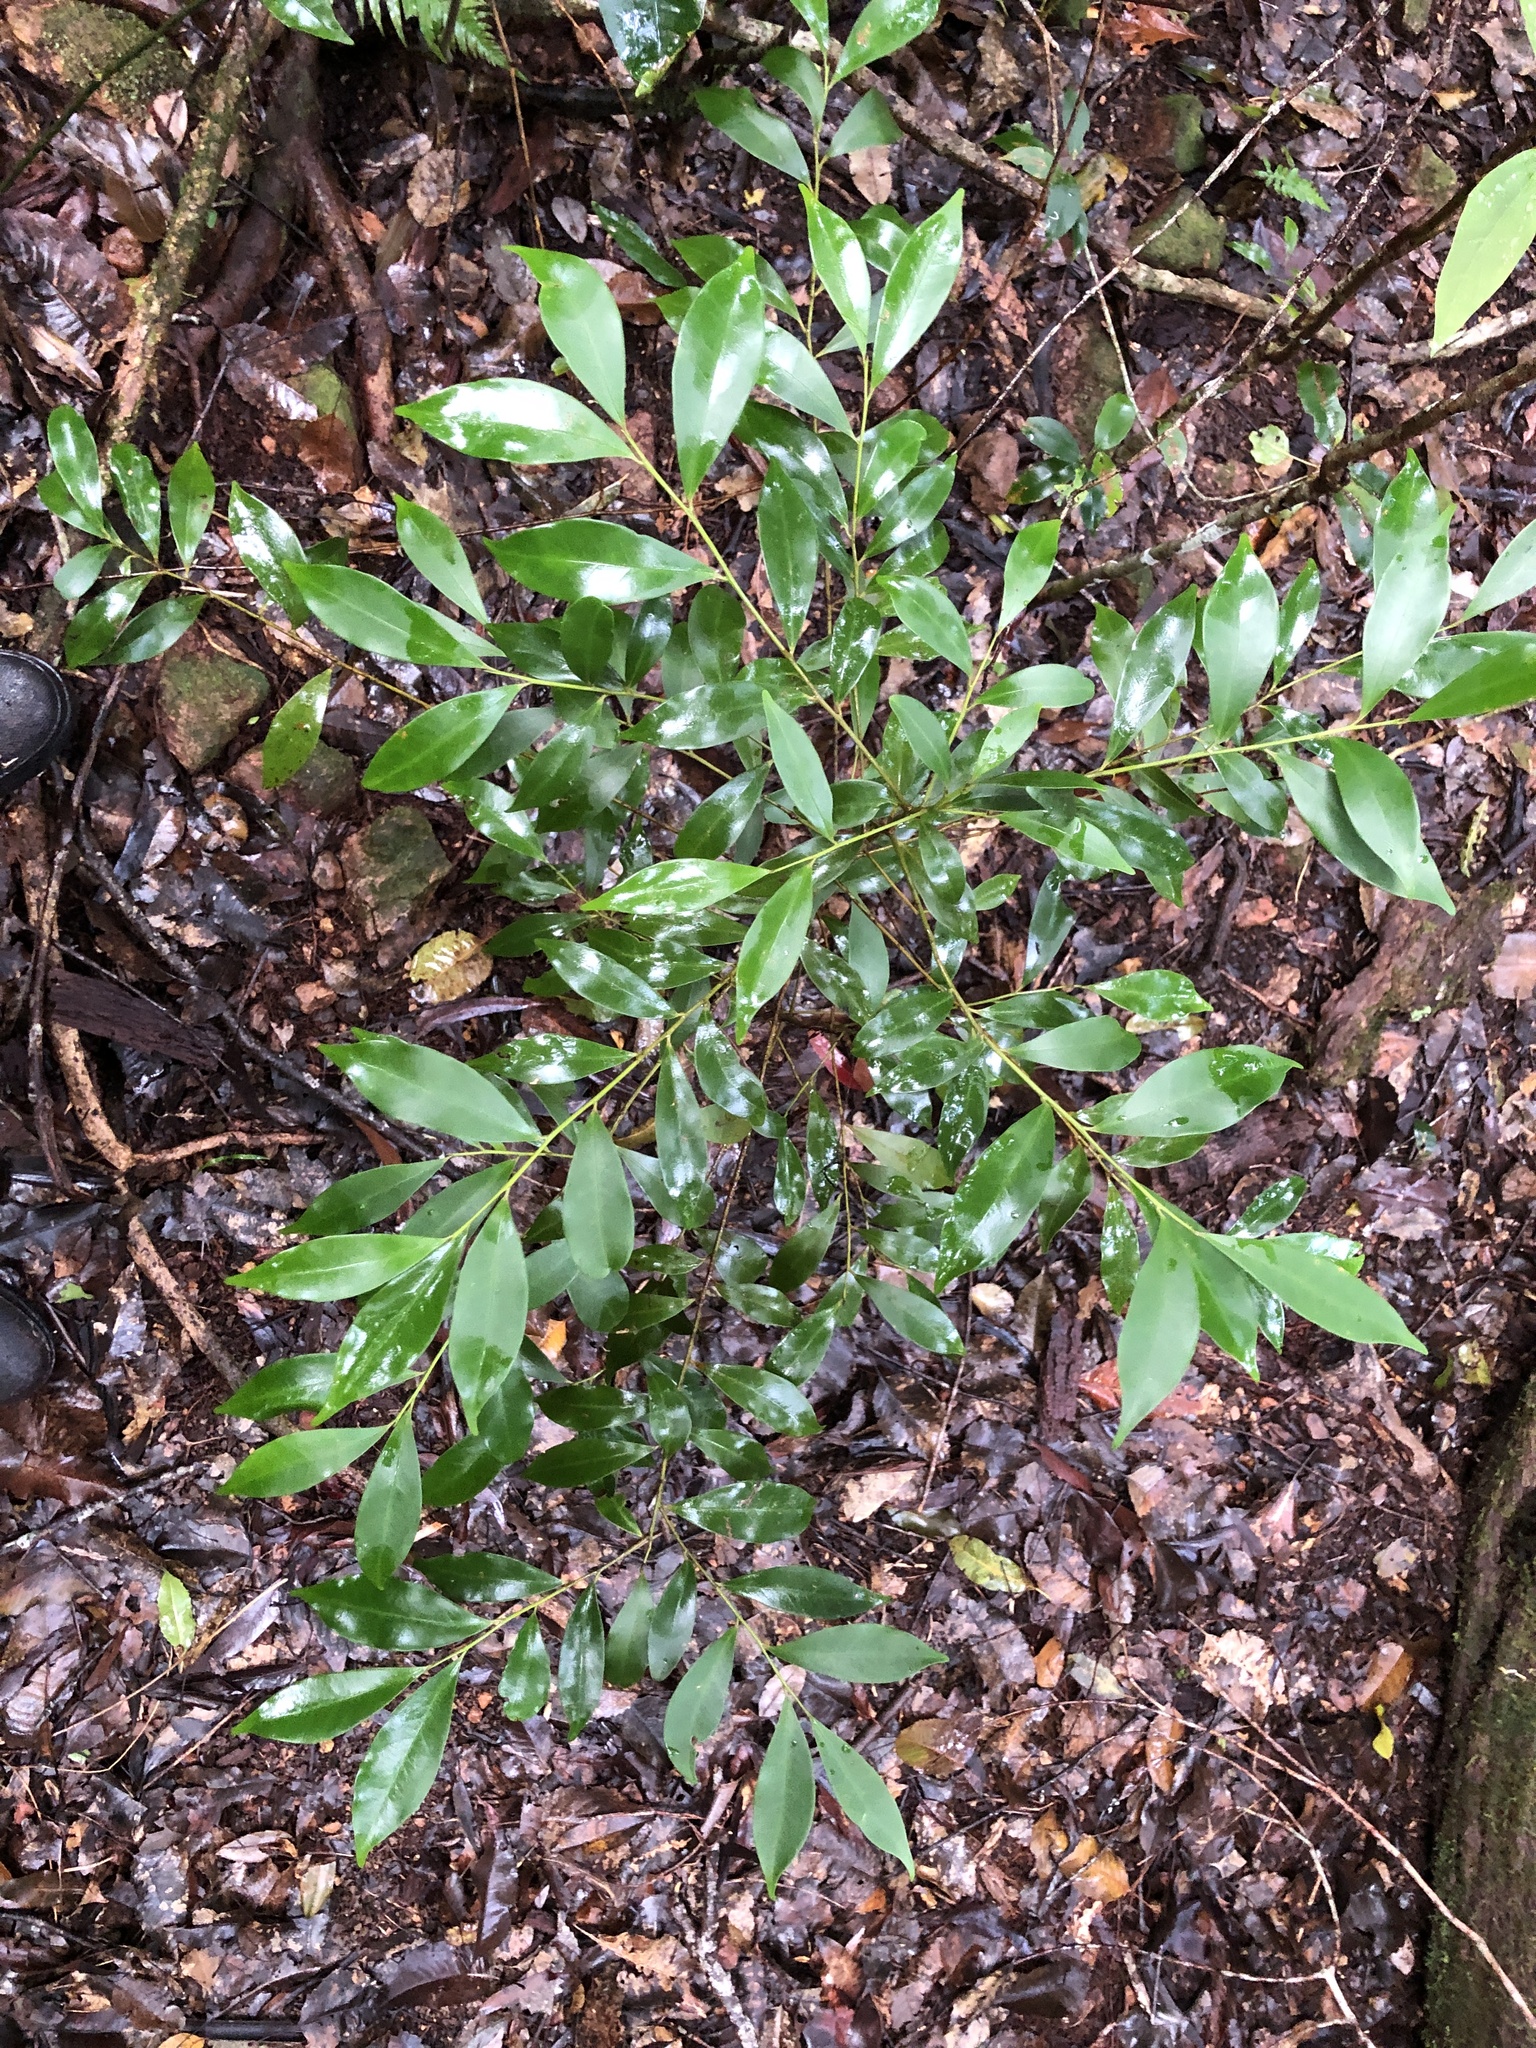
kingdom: Plantae
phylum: Tracheophyta
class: Magnoliopsida
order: Laurales
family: Lauraceae
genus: Cryptocarya
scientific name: Cryptocarya meisneriana
